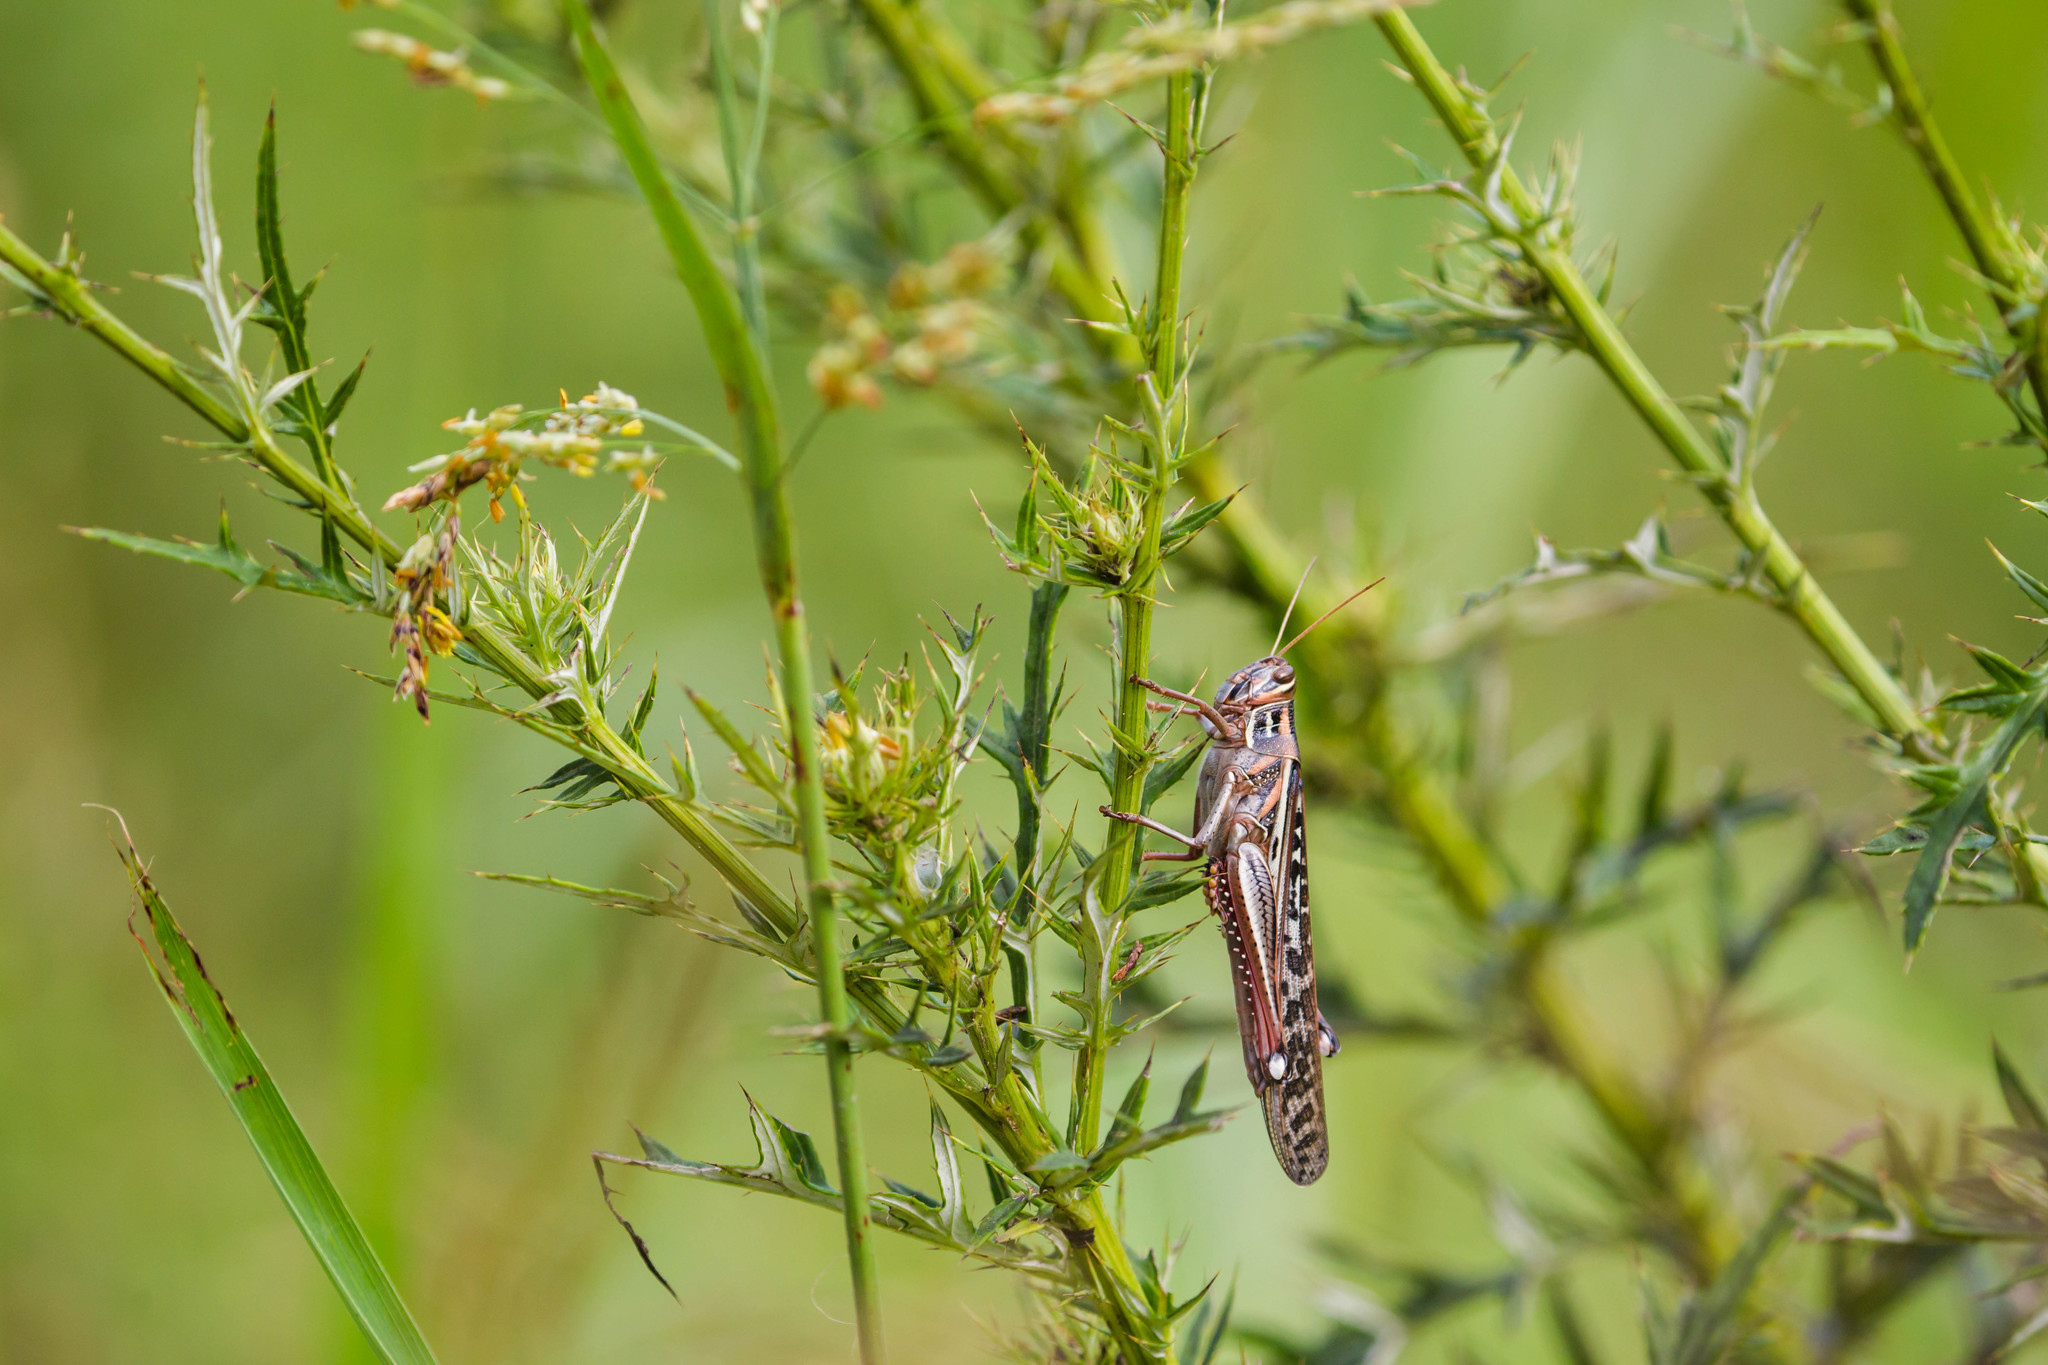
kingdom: Animalia
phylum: Arthropoda
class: Insecta
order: Orthoptera
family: Acrididae
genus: Schistocerca
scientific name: Schistocerca americana
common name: American bird locust
